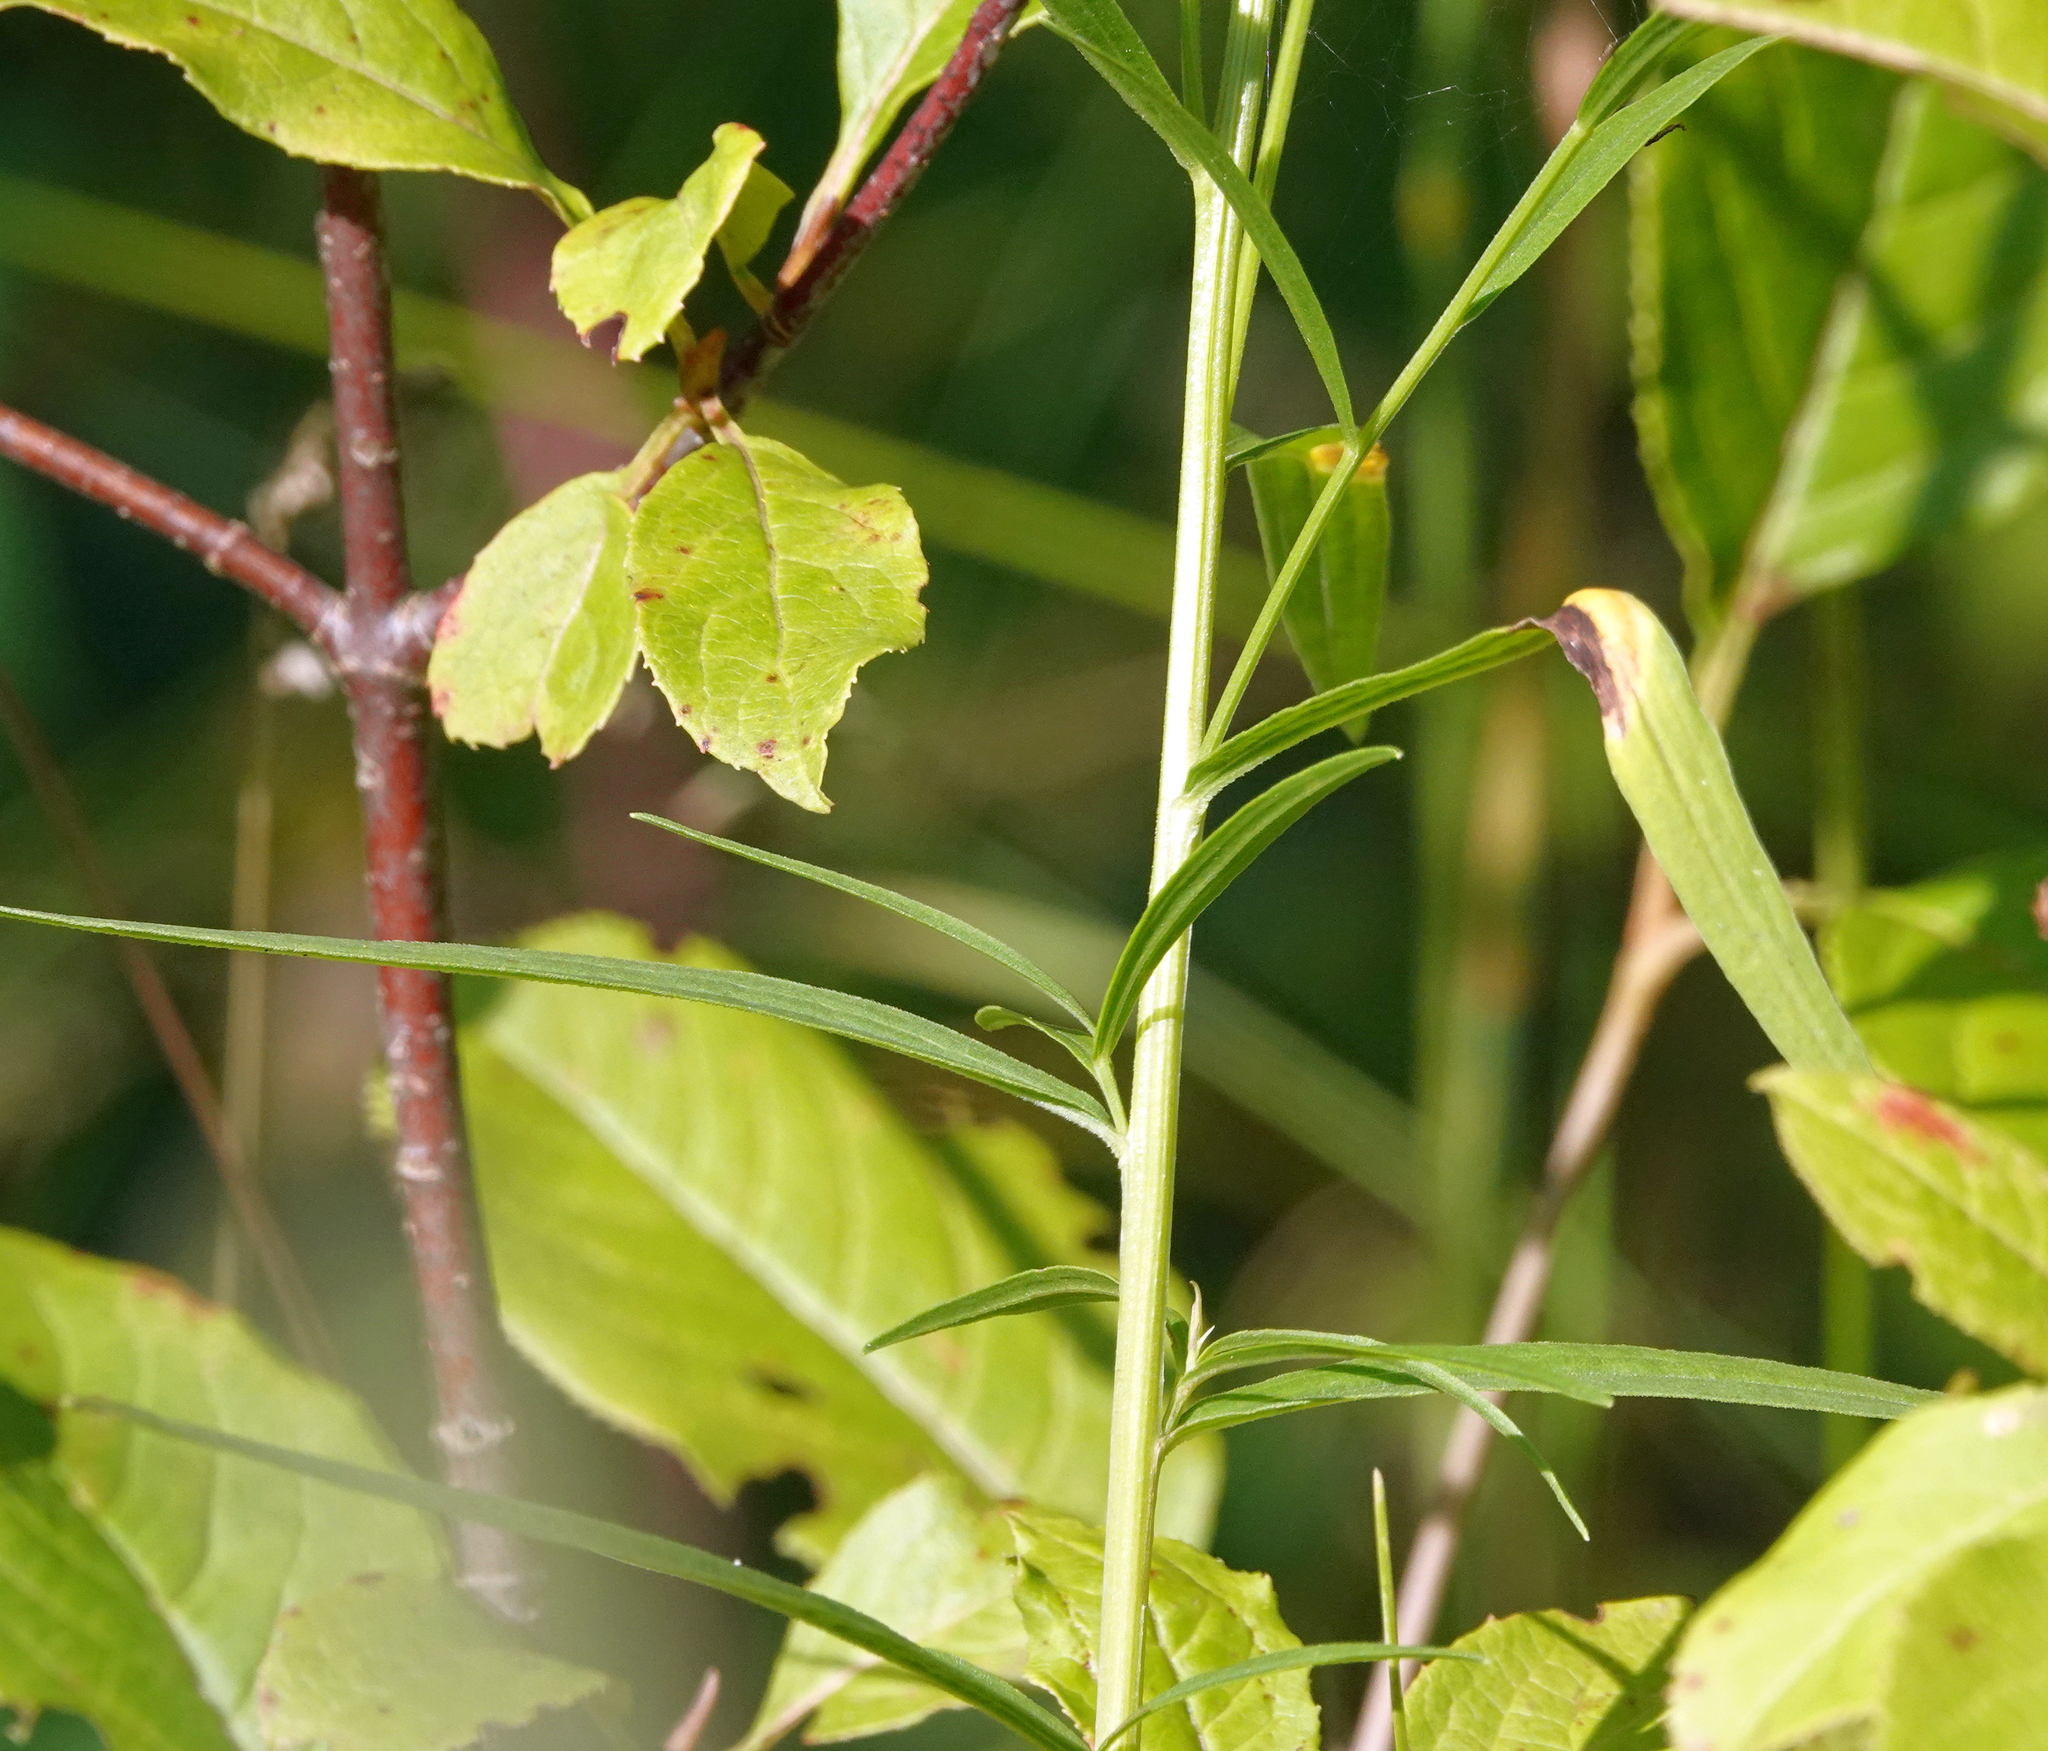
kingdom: Plantae
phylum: Tracheophyta
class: Magnoliopsida
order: Asterales
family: Asteraceae
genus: Euthamia
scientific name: Euthamia graminifolia
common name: Common goldentop
